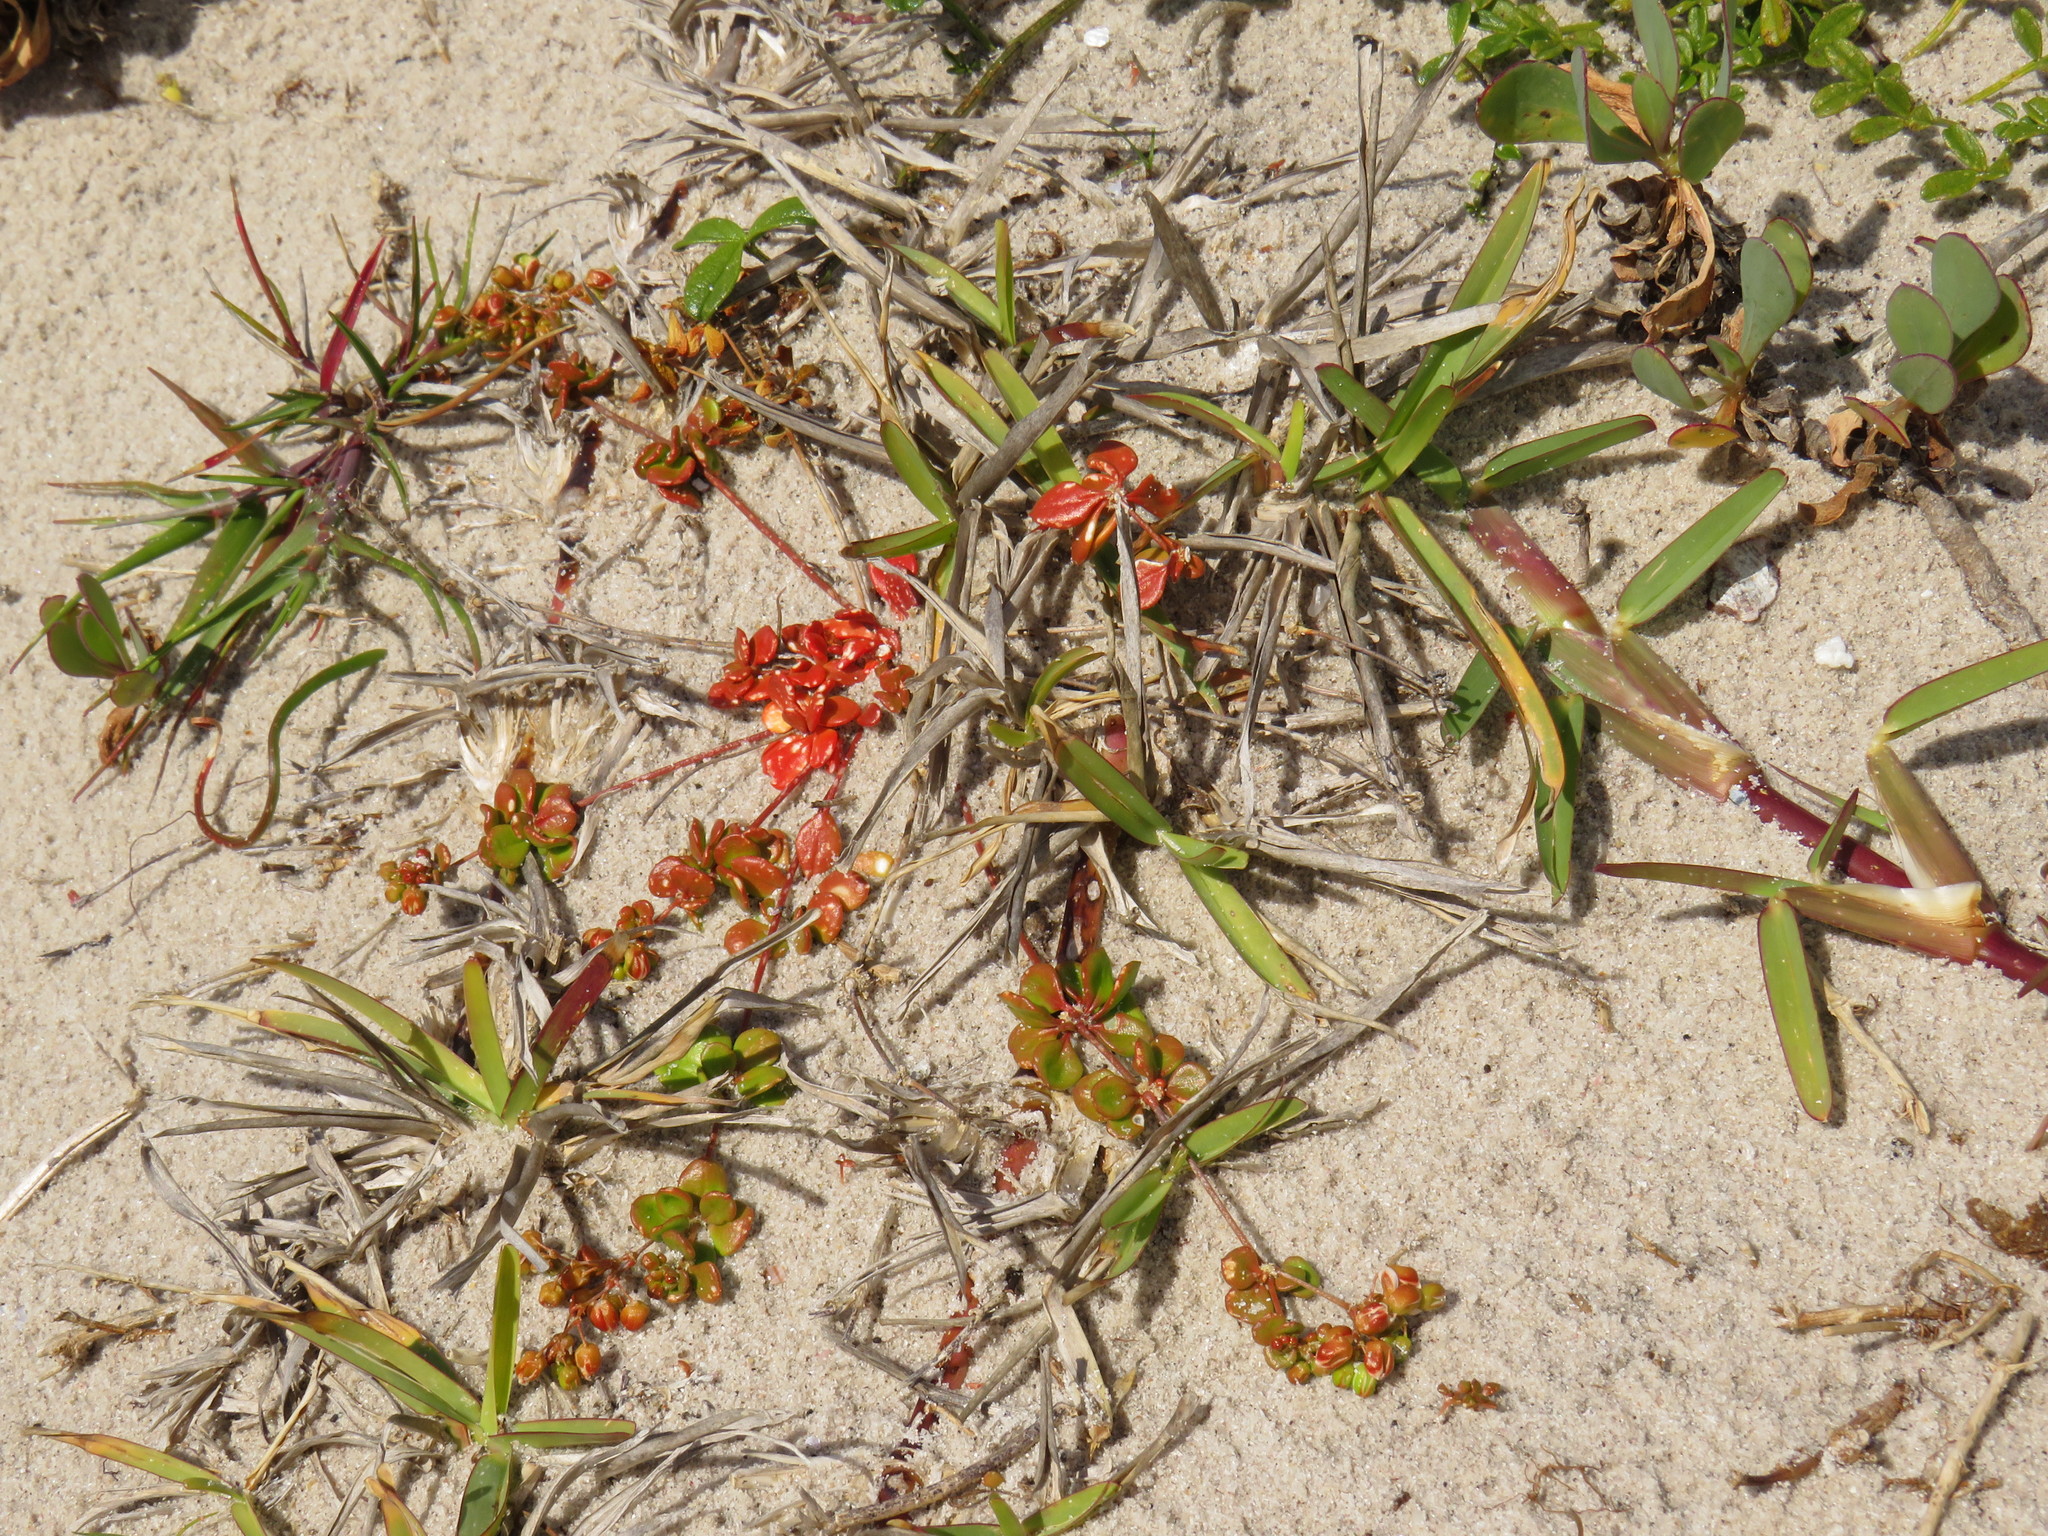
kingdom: Plantae
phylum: Tracheophyta
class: Magnoliopsida
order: Caryophyllales
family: Molluginaceae
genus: Pharnaceum
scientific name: Pharnaceum cordifolium
